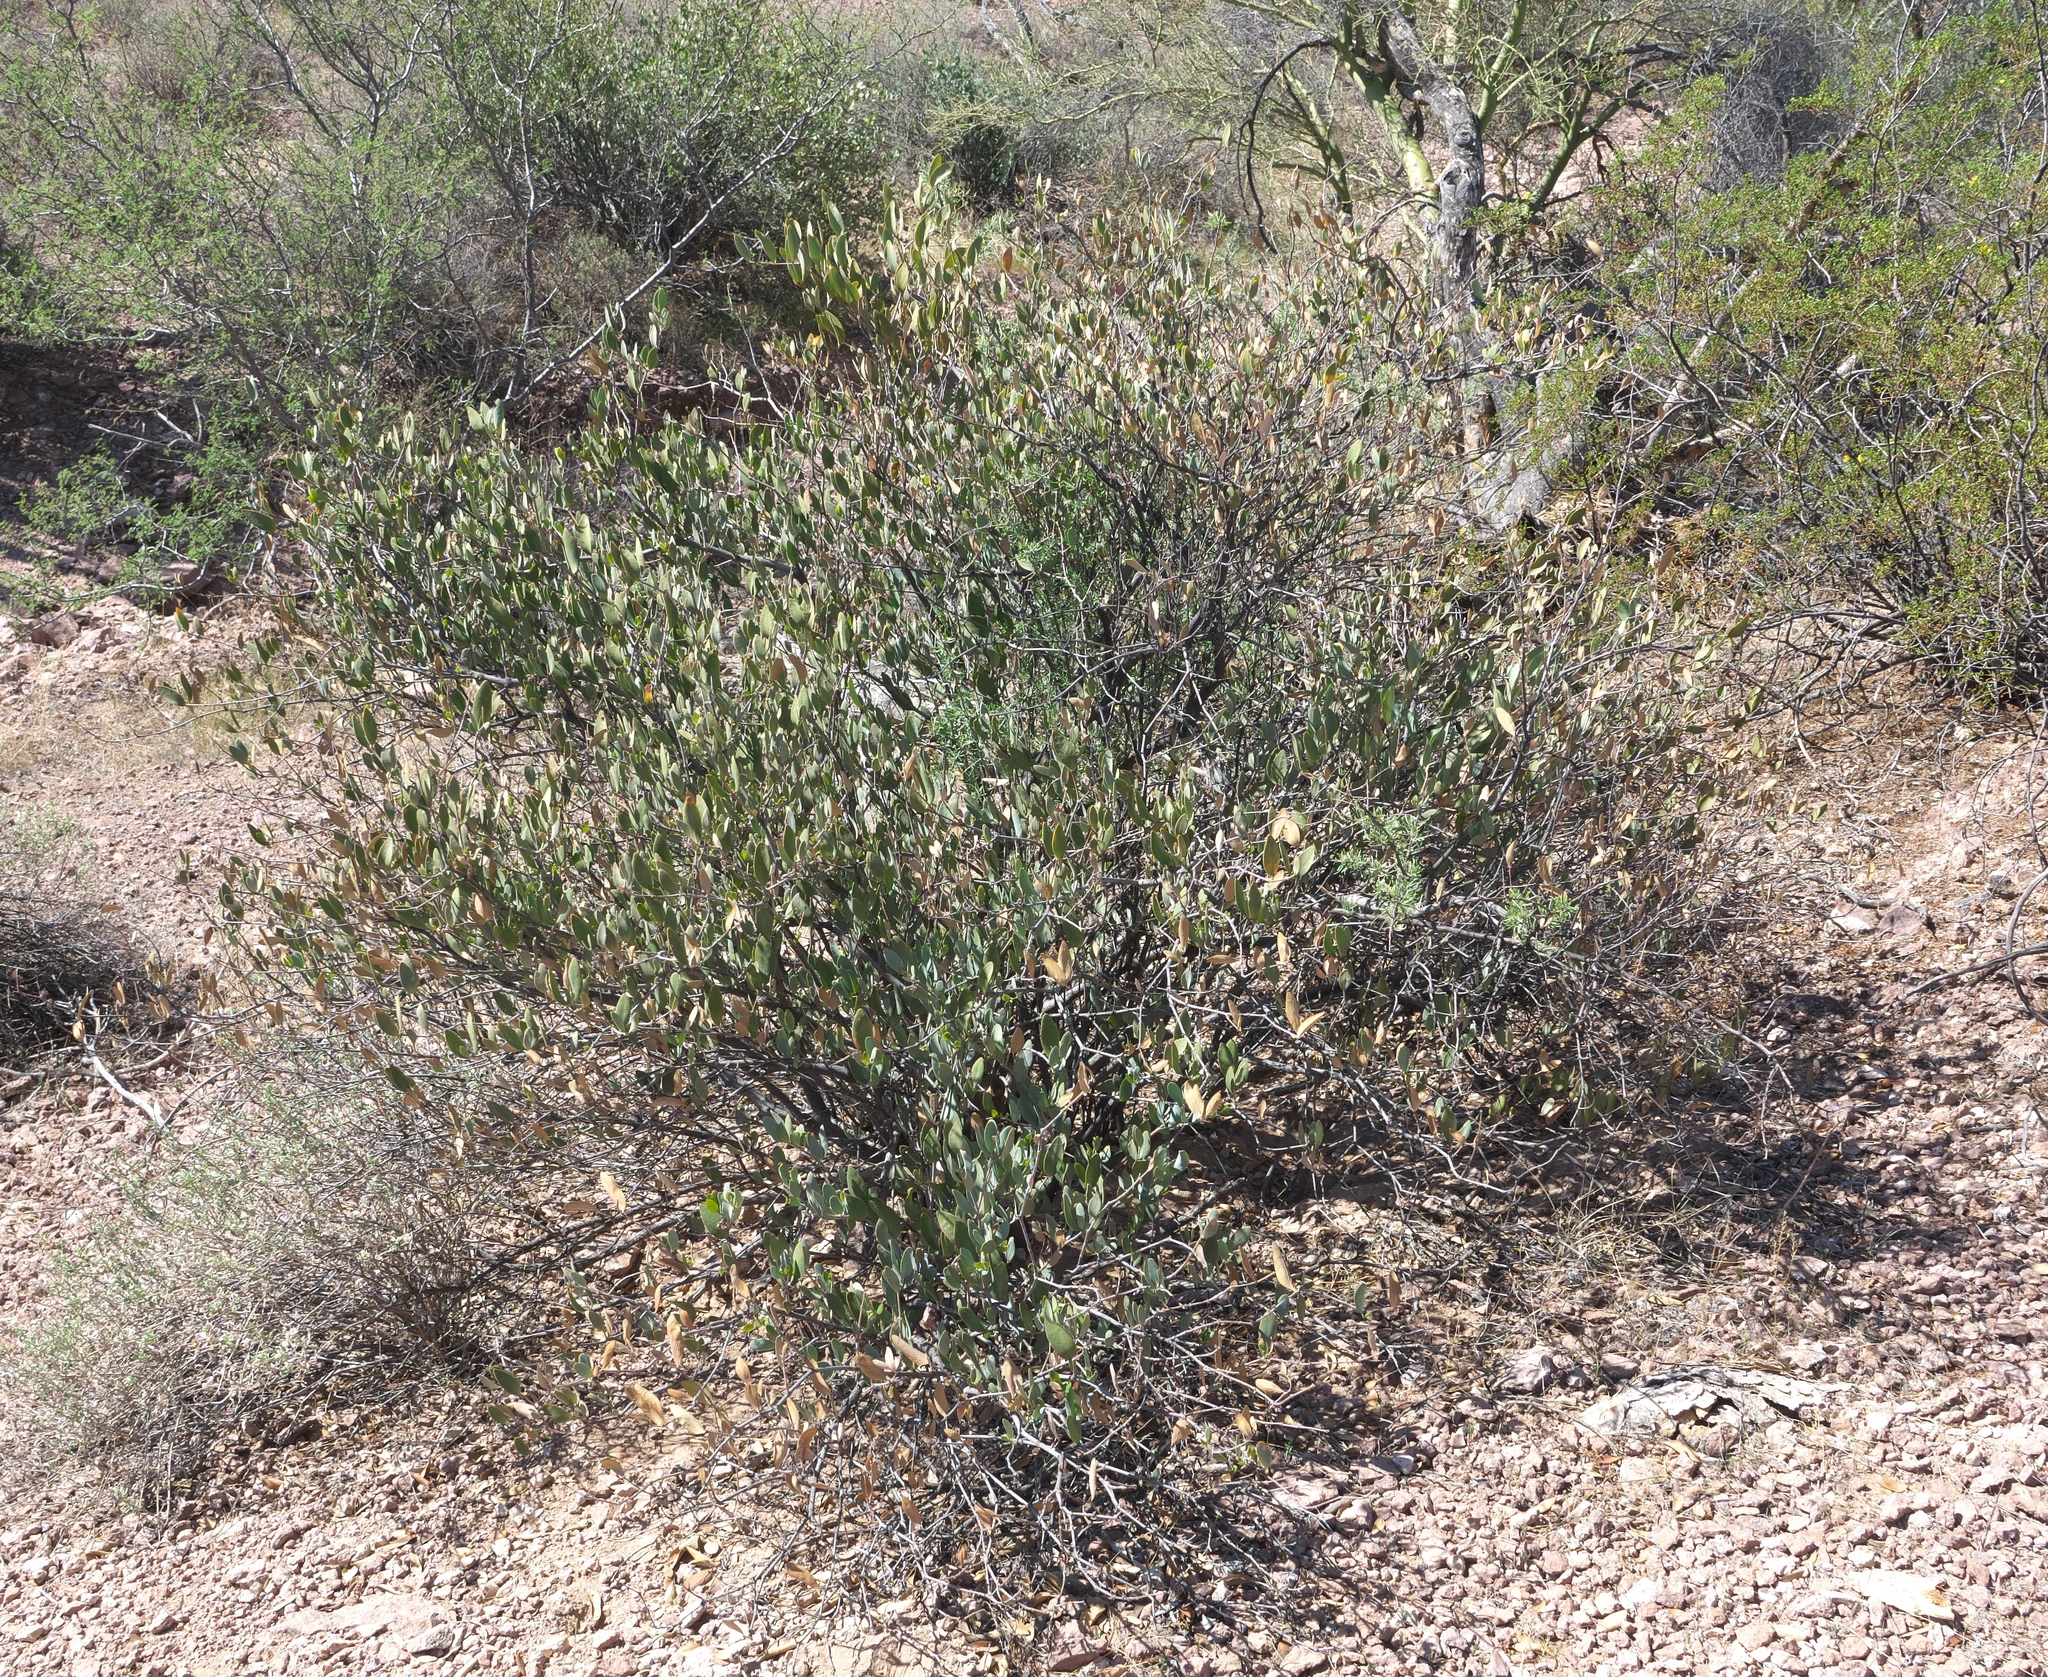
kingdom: Plantae
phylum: Tracheophyta
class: Magnoliopsida
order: Caryophyllales
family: Simmondsiaceae
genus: Simmondsia
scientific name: Simmondsia chinensis
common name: Jojoba
